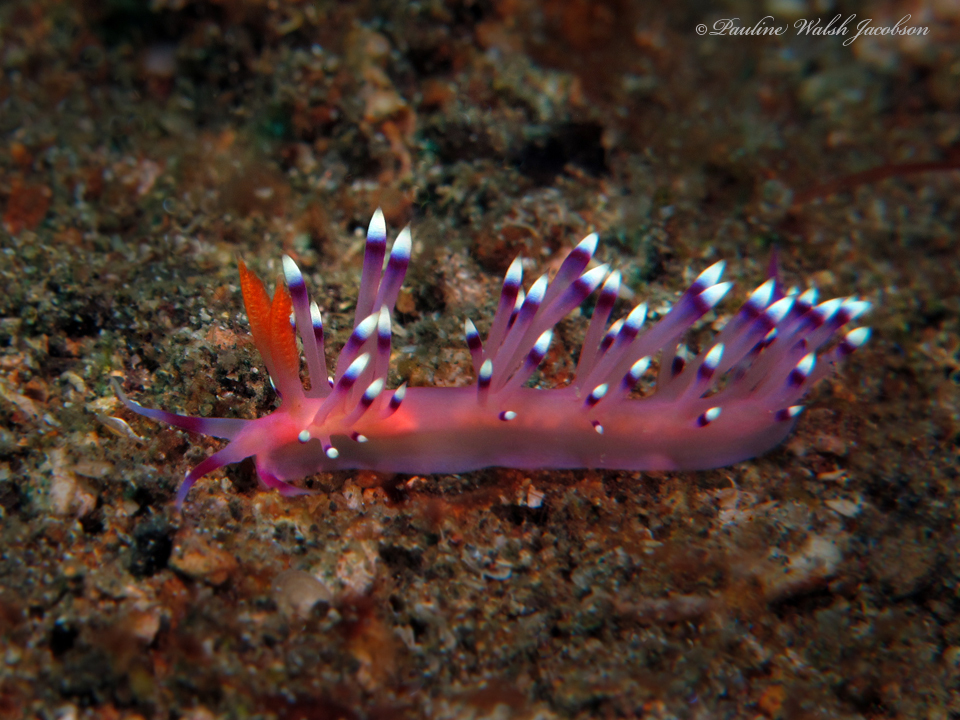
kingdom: Animalia
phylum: Mollusca
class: Gastropoda
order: Nudibranchia
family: Flabellinidae
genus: Coryphellina
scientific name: Coryphellina exoptata
